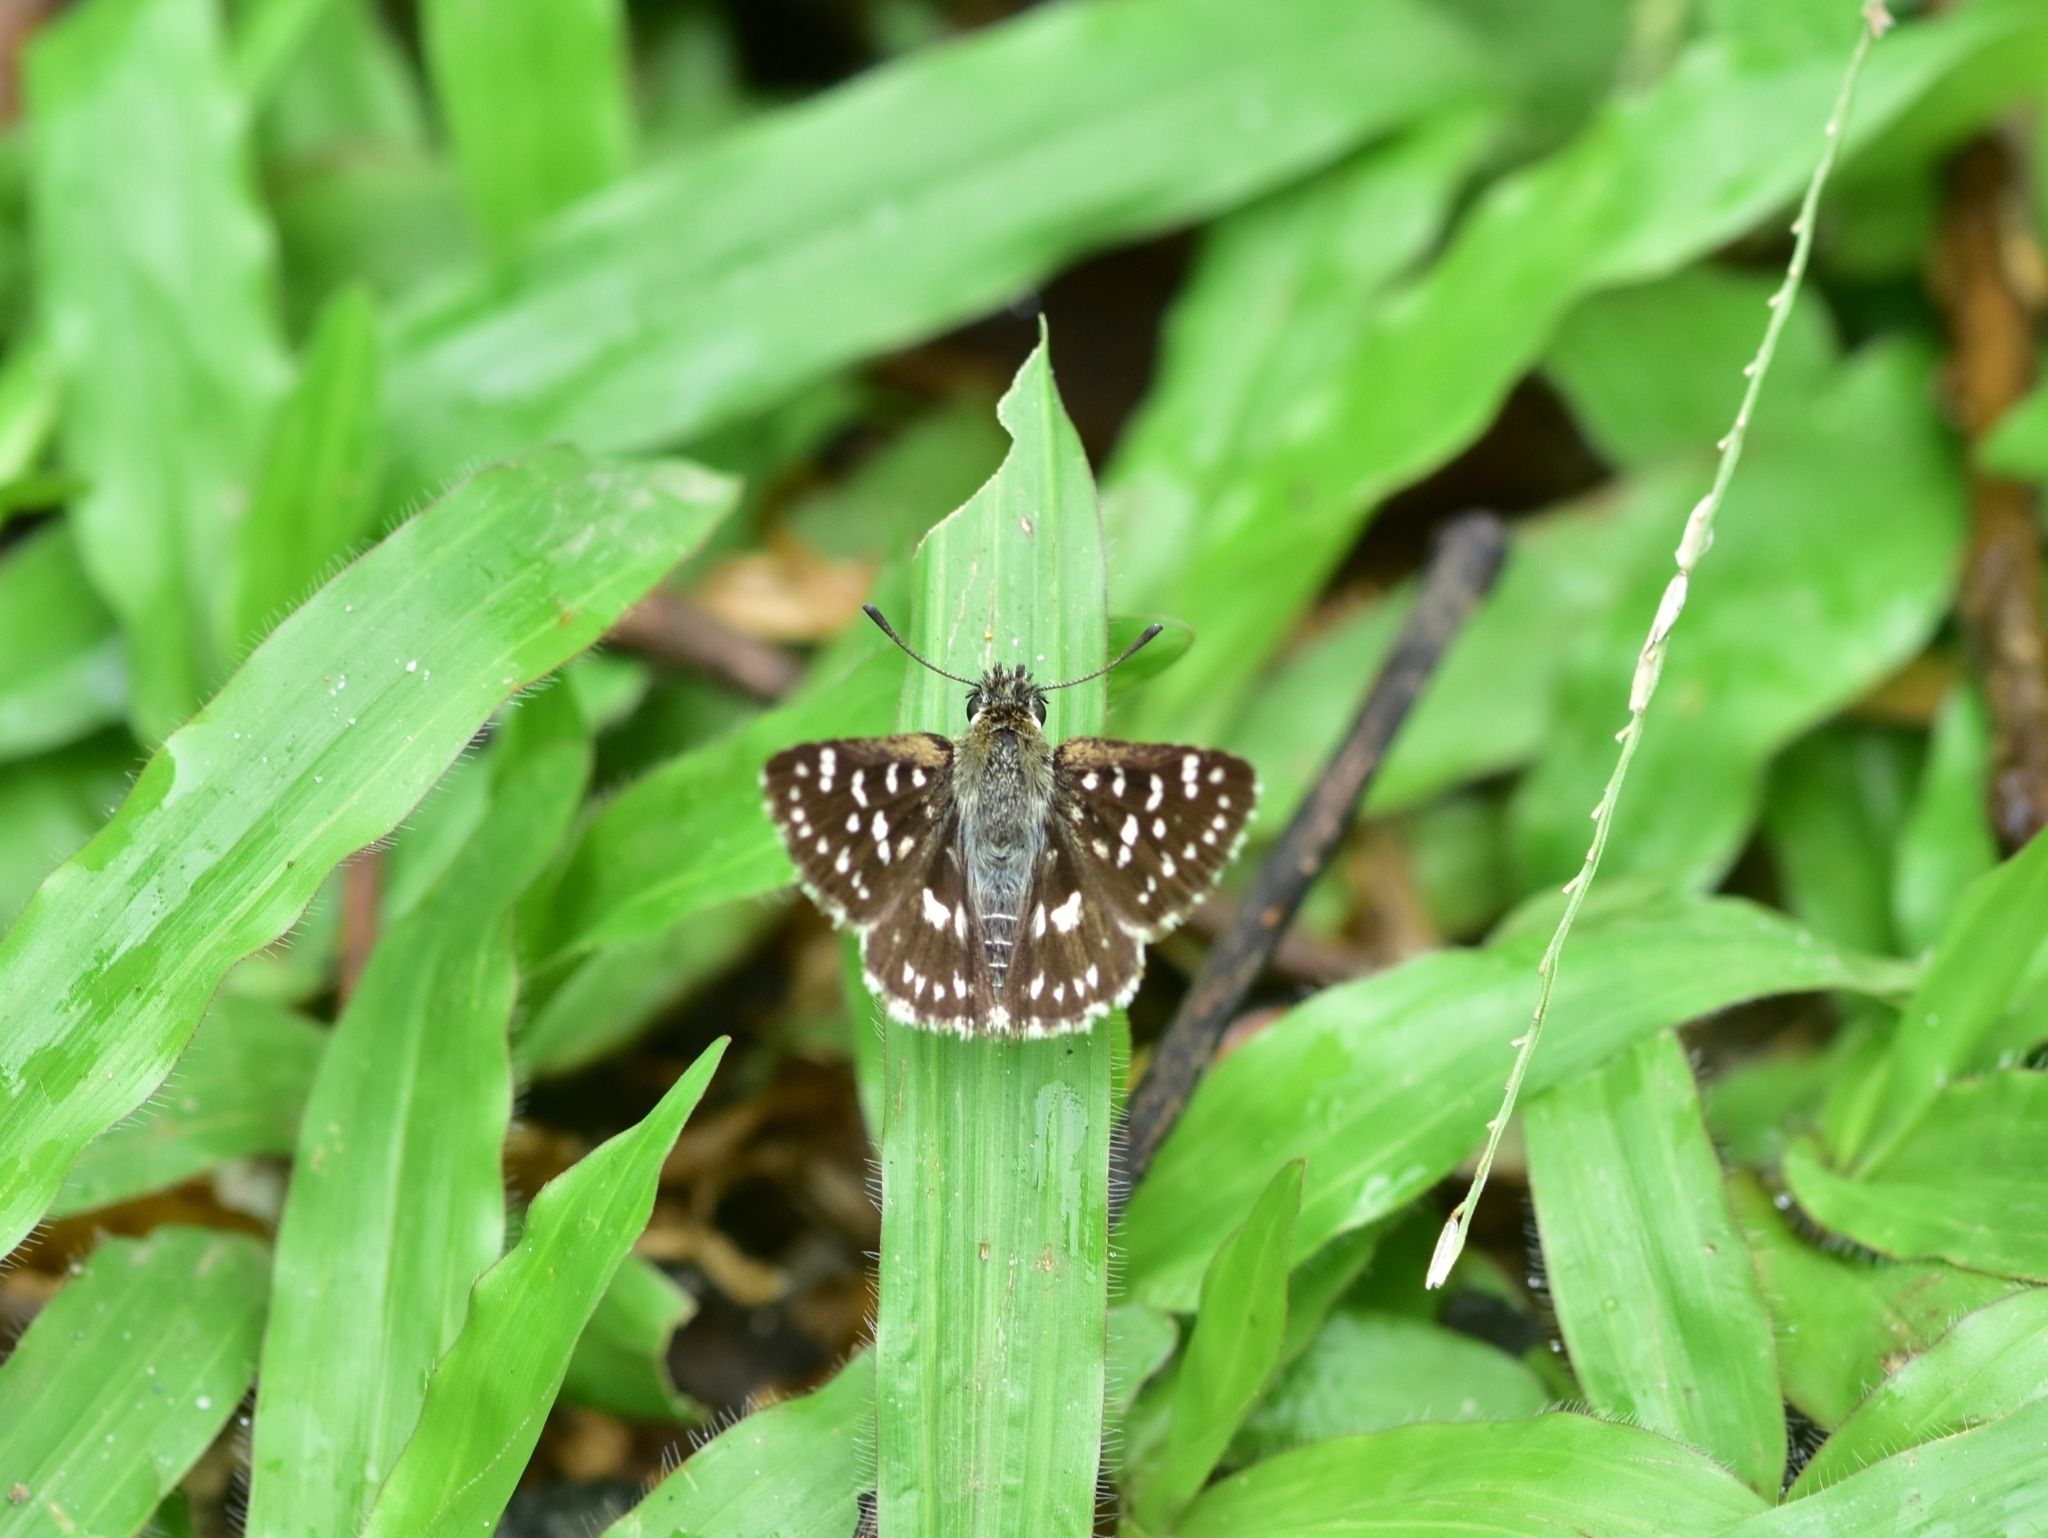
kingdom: Animalia
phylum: Arthropoda
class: Insecta
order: Lepidoptera
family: Hesperiidae
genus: Spialia
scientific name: Spialia galba
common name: Indian skipper
